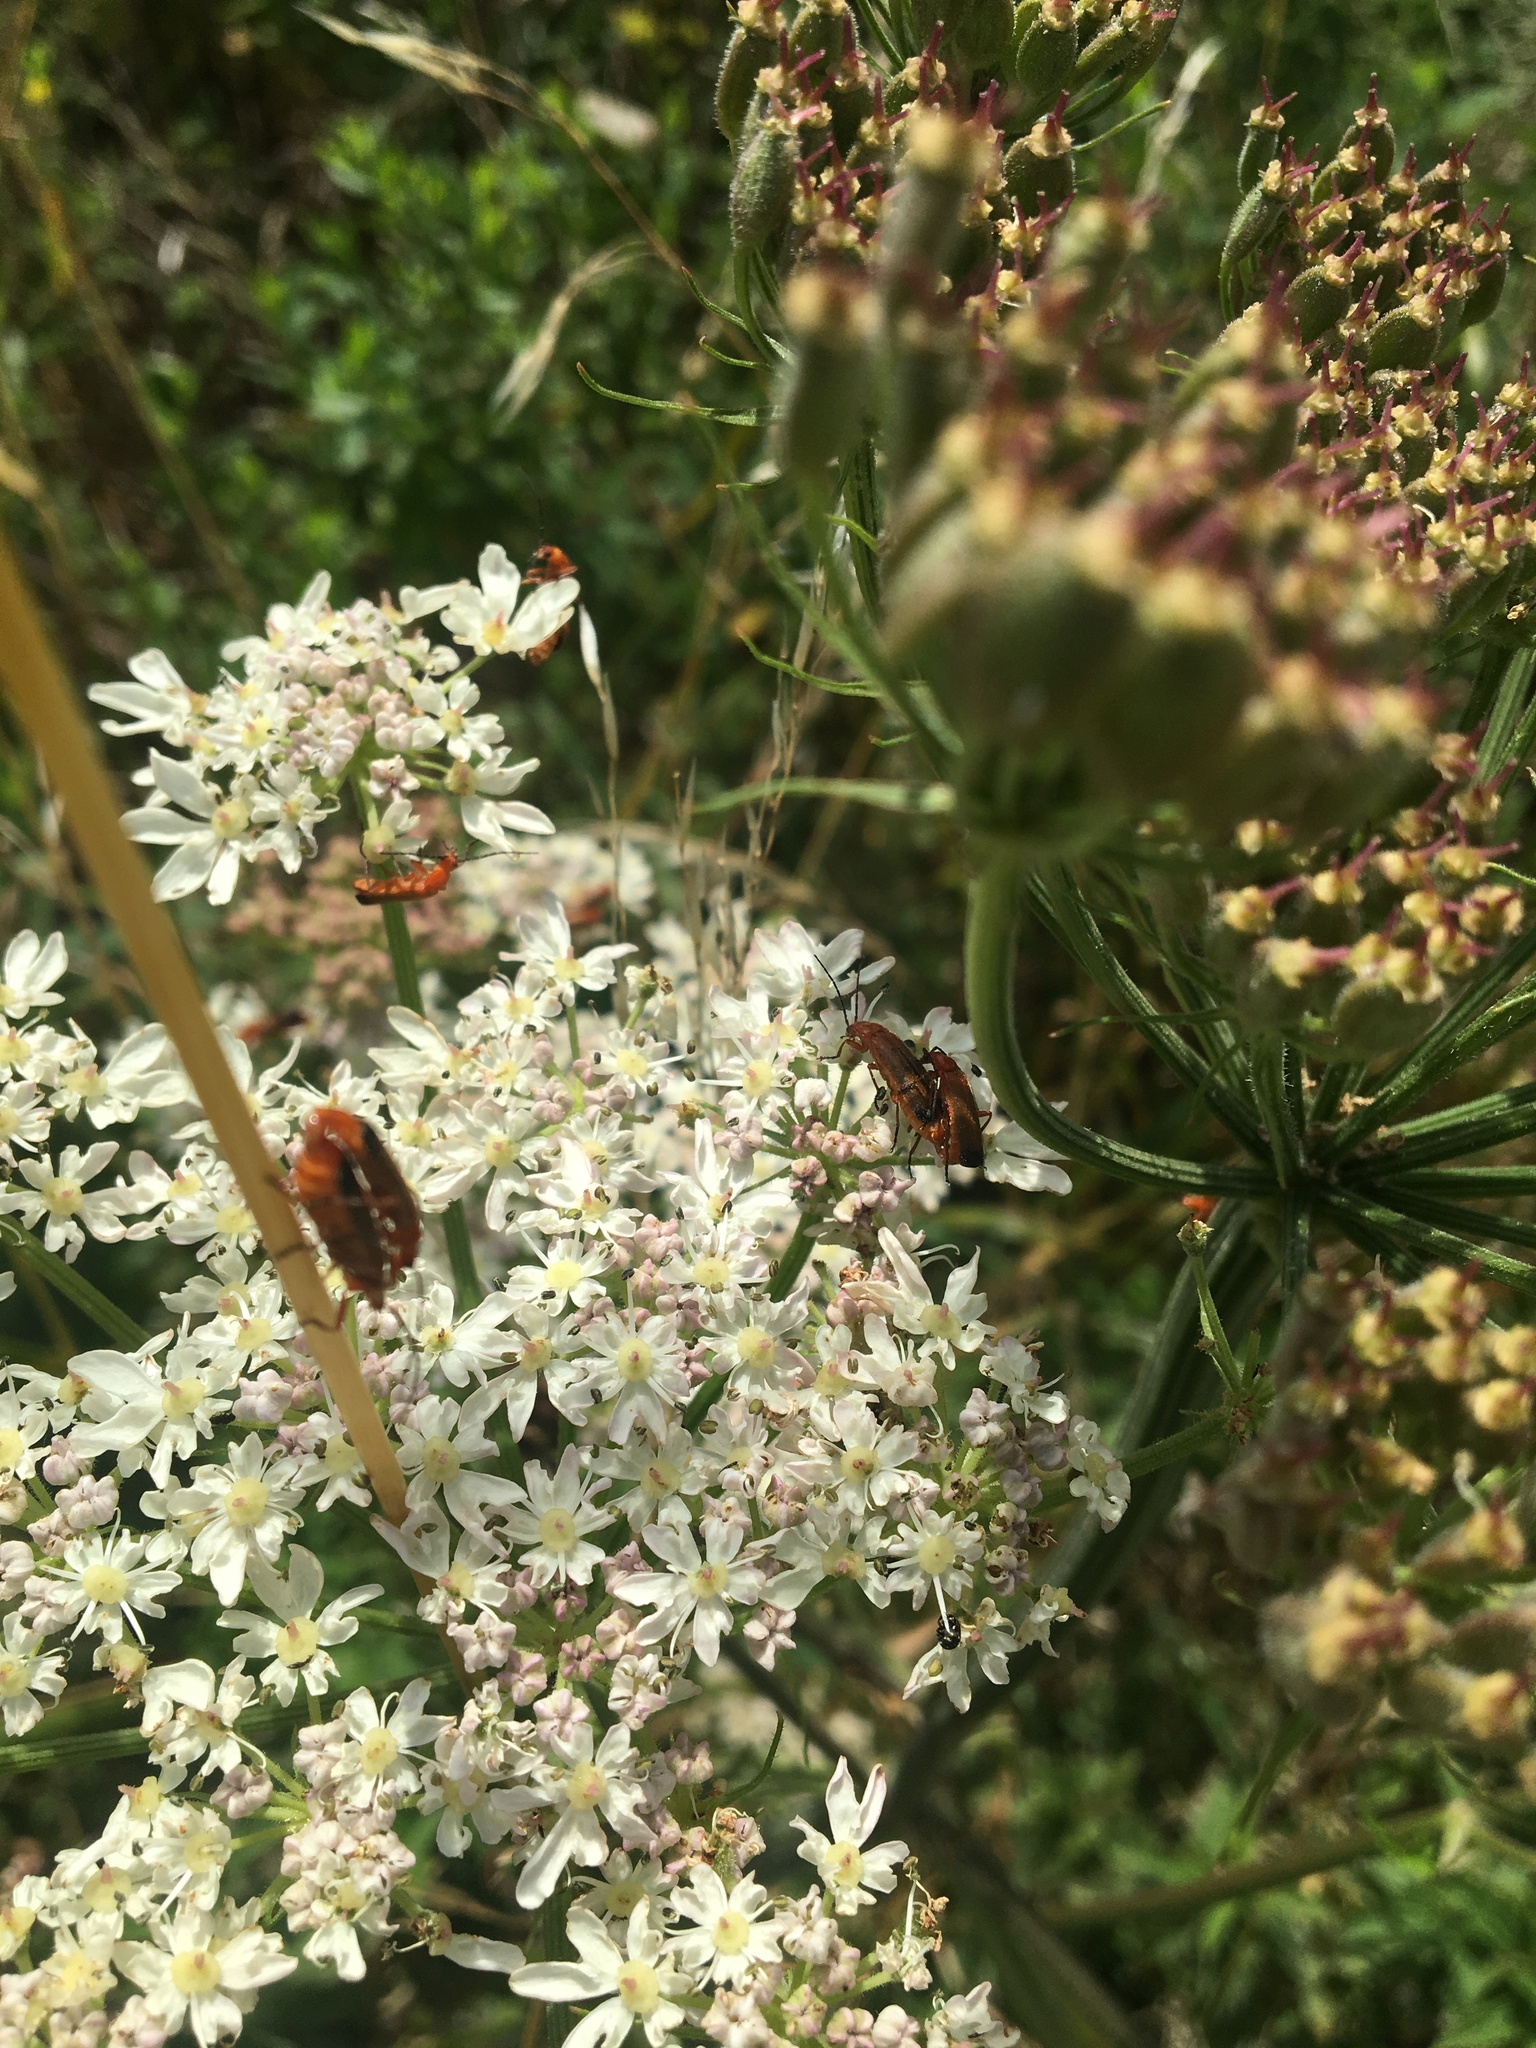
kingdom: Animalia
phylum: Arthropoda
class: Insecta
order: Coleoptera
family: Cantharidae
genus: Rhagonycha
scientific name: Rhagonycha fulva
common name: Common red soldier beetle
